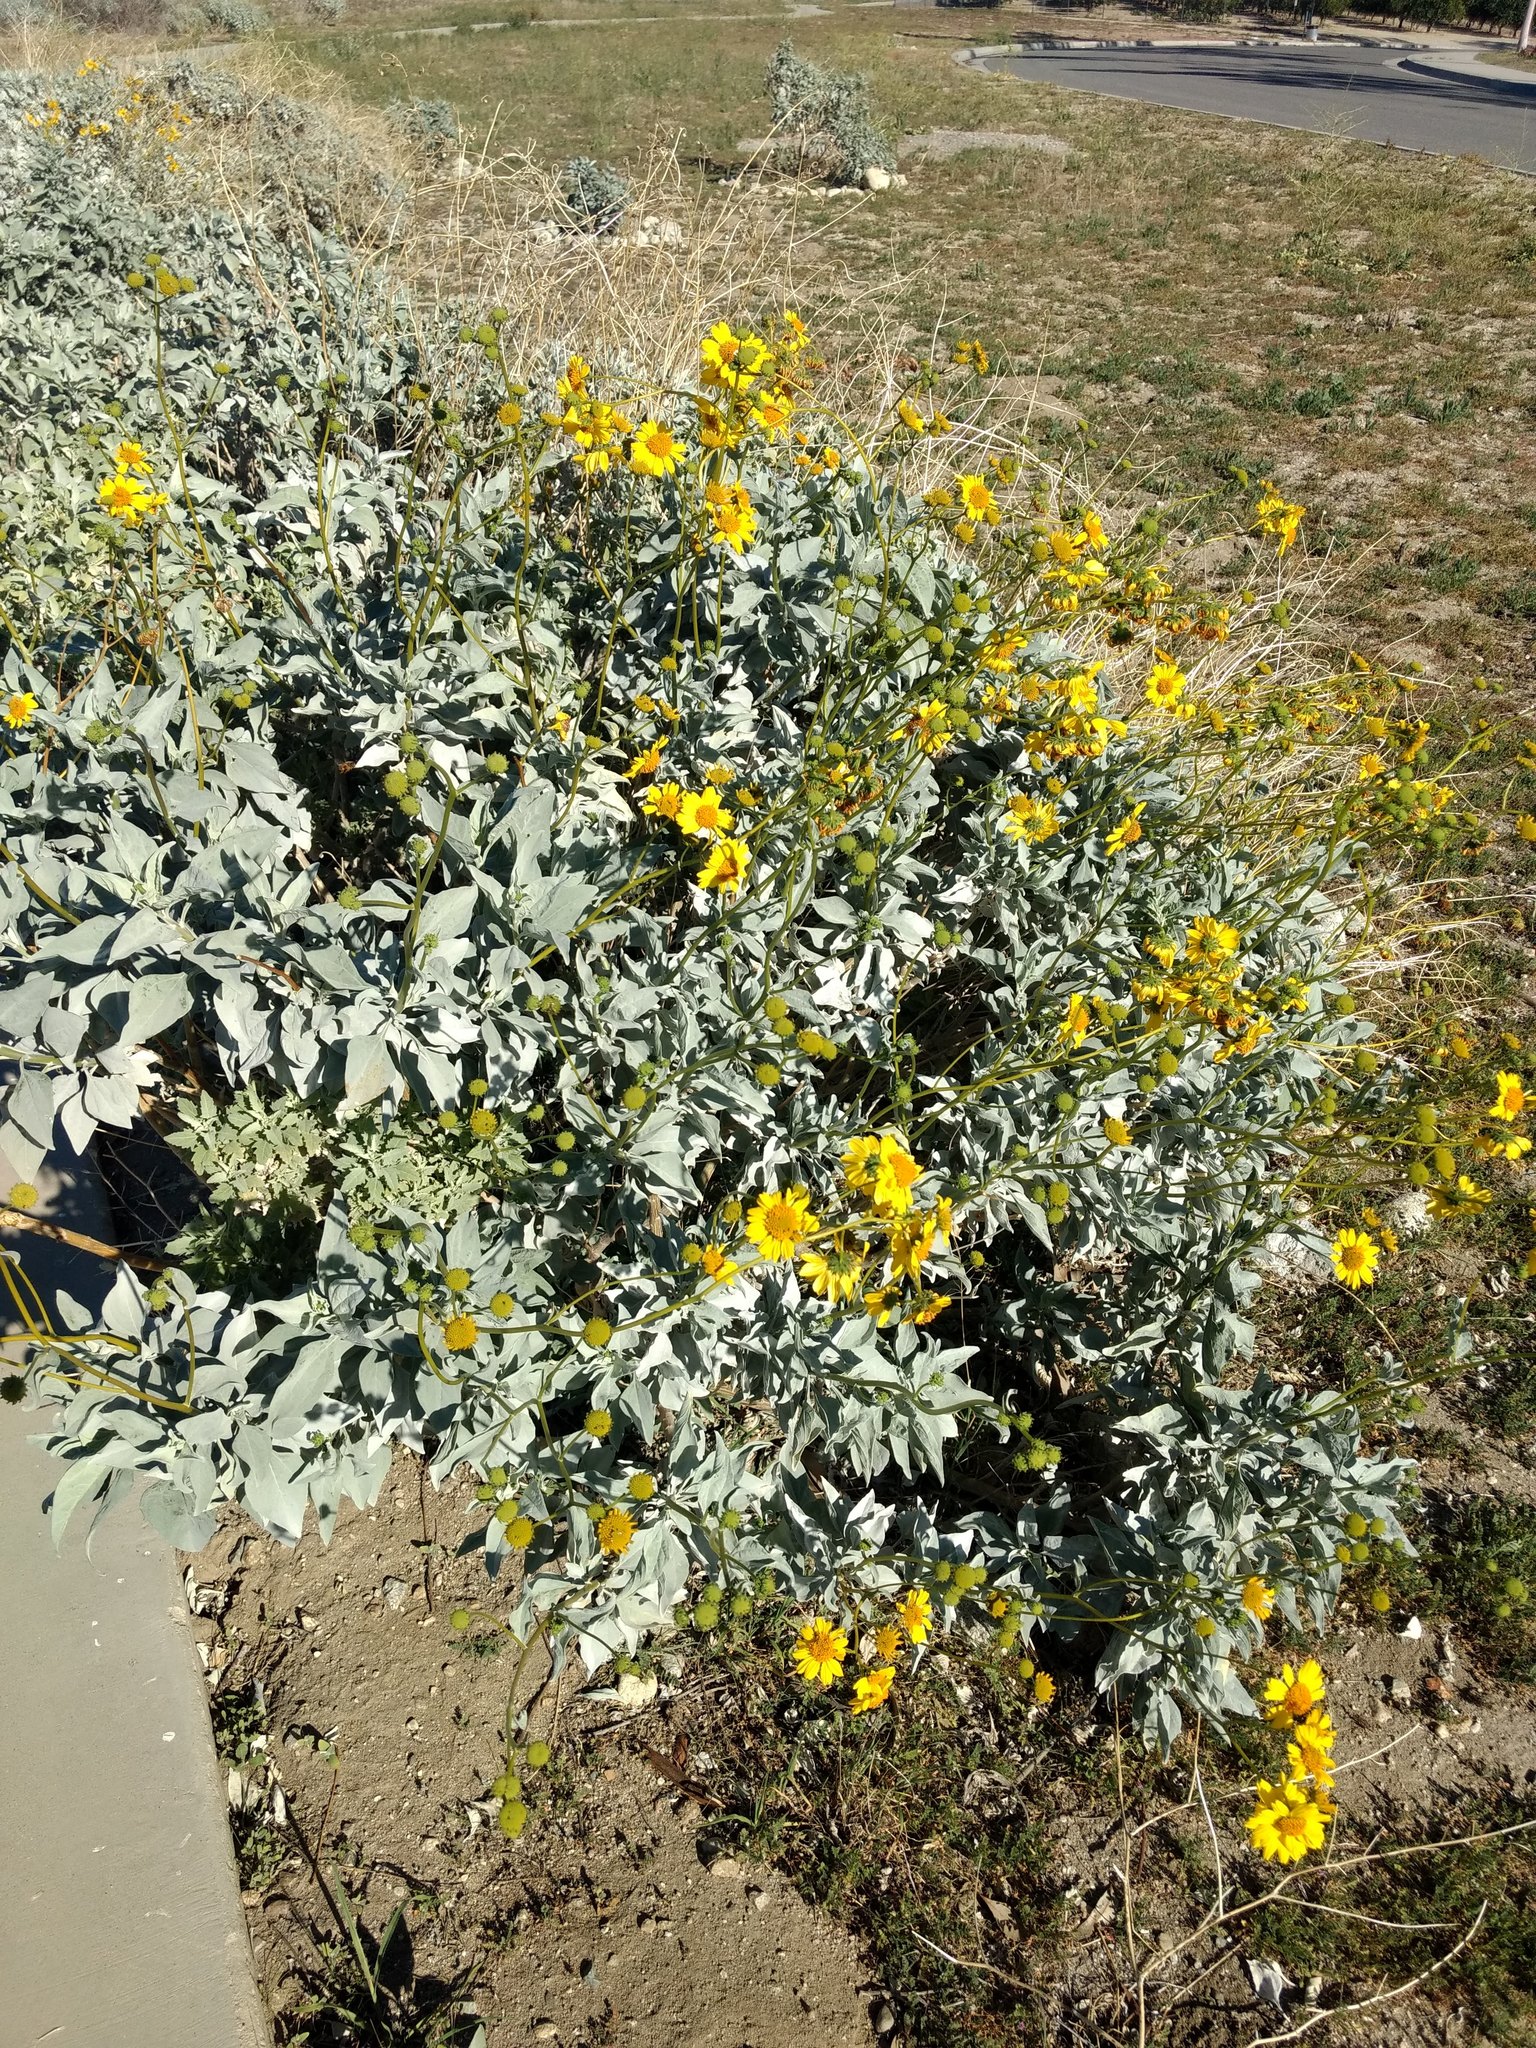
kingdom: Plantae
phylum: Tracheophyta
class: Magnoliopsida
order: Asterales
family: Asteraceae
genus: Encelia
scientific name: Encelia farinosa
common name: Brittlebush
